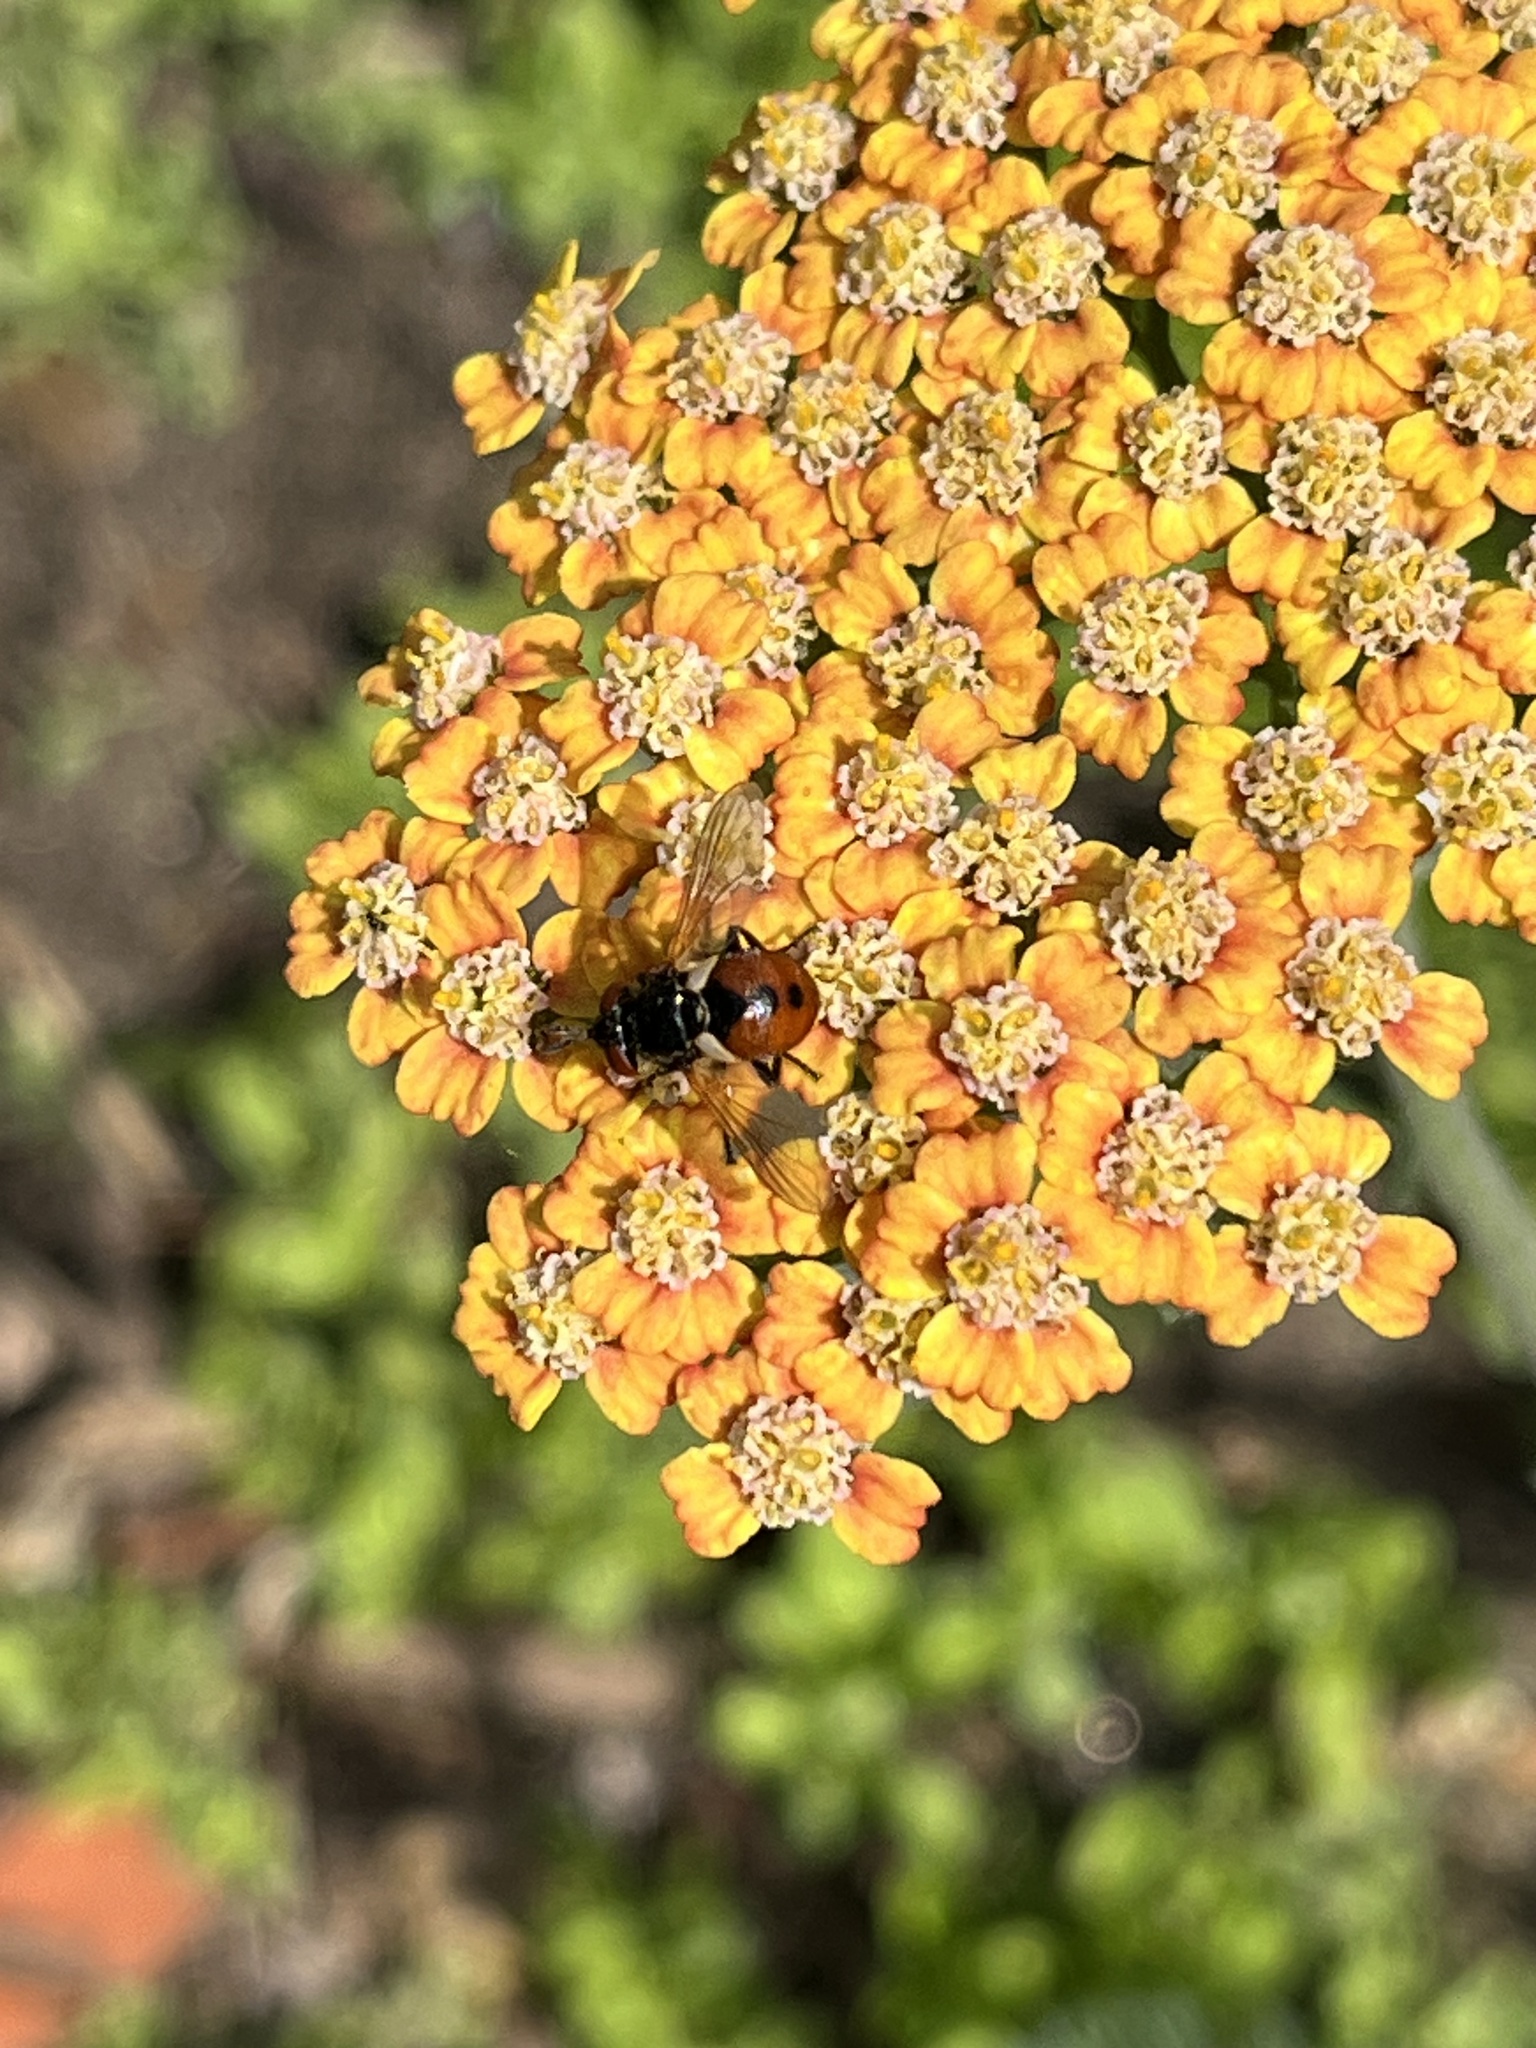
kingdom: Animalia
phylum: Arthropoda
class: Insecta
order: Diptera
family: Tachinidae
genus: Gymnosoma
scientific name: Gymnosoma rotundatum
